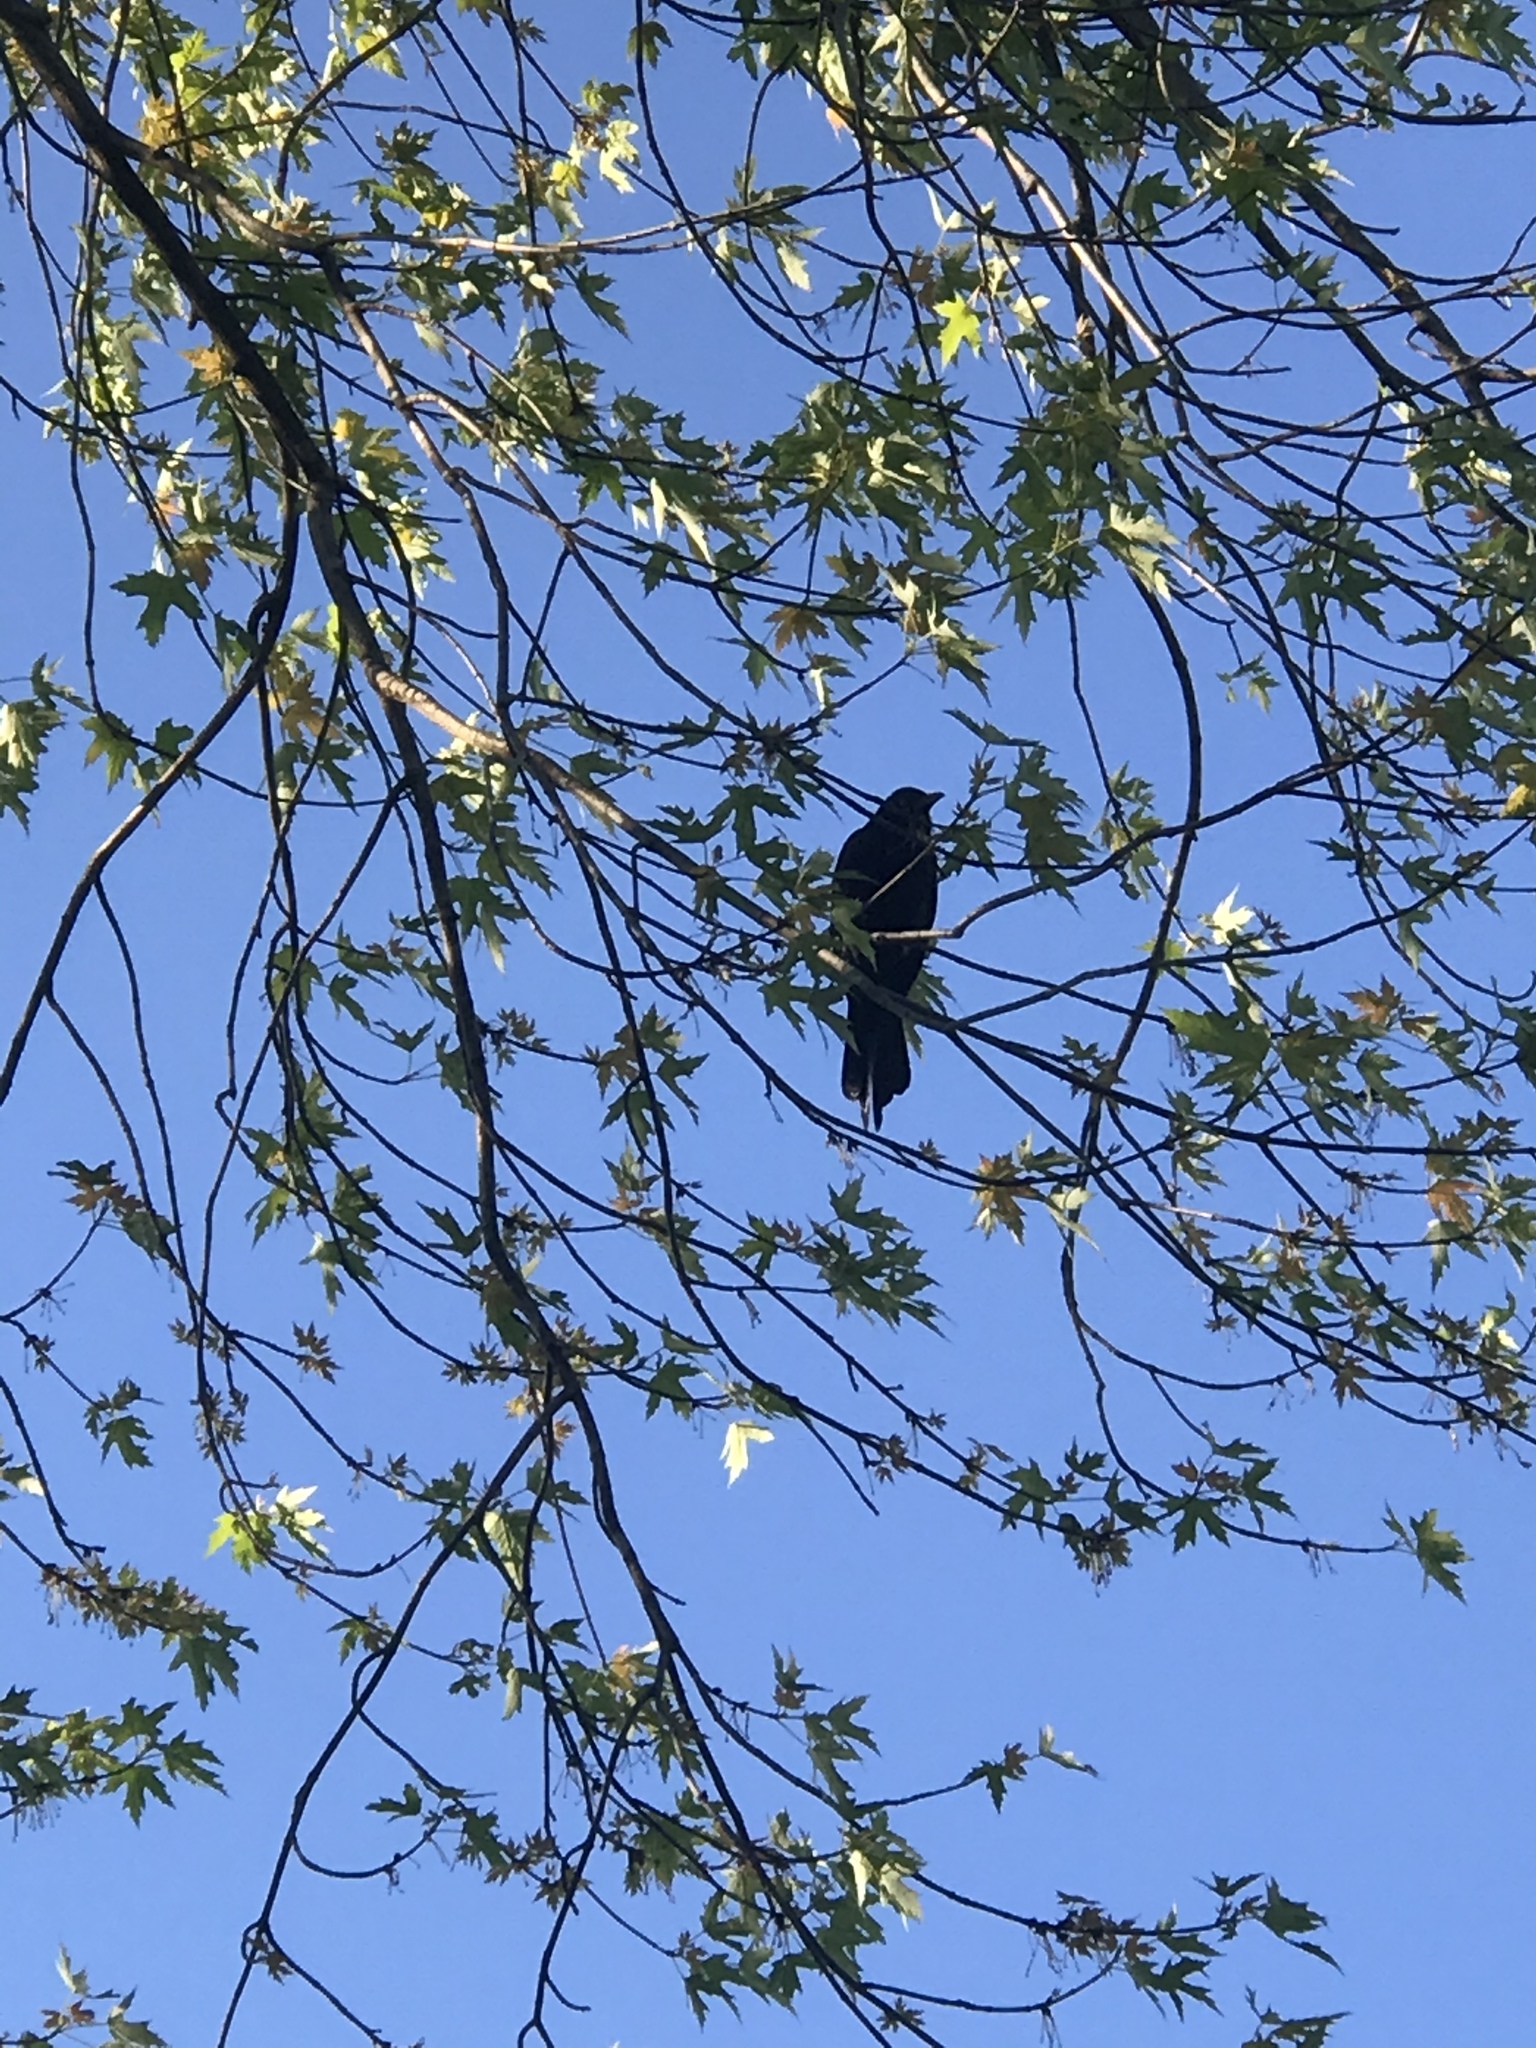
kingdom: Animalia
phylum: Chordata
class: Aves
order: Passeriformes
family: Corvidae
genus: Corvus
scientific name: Corvus ossifragus
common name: Fish crow
